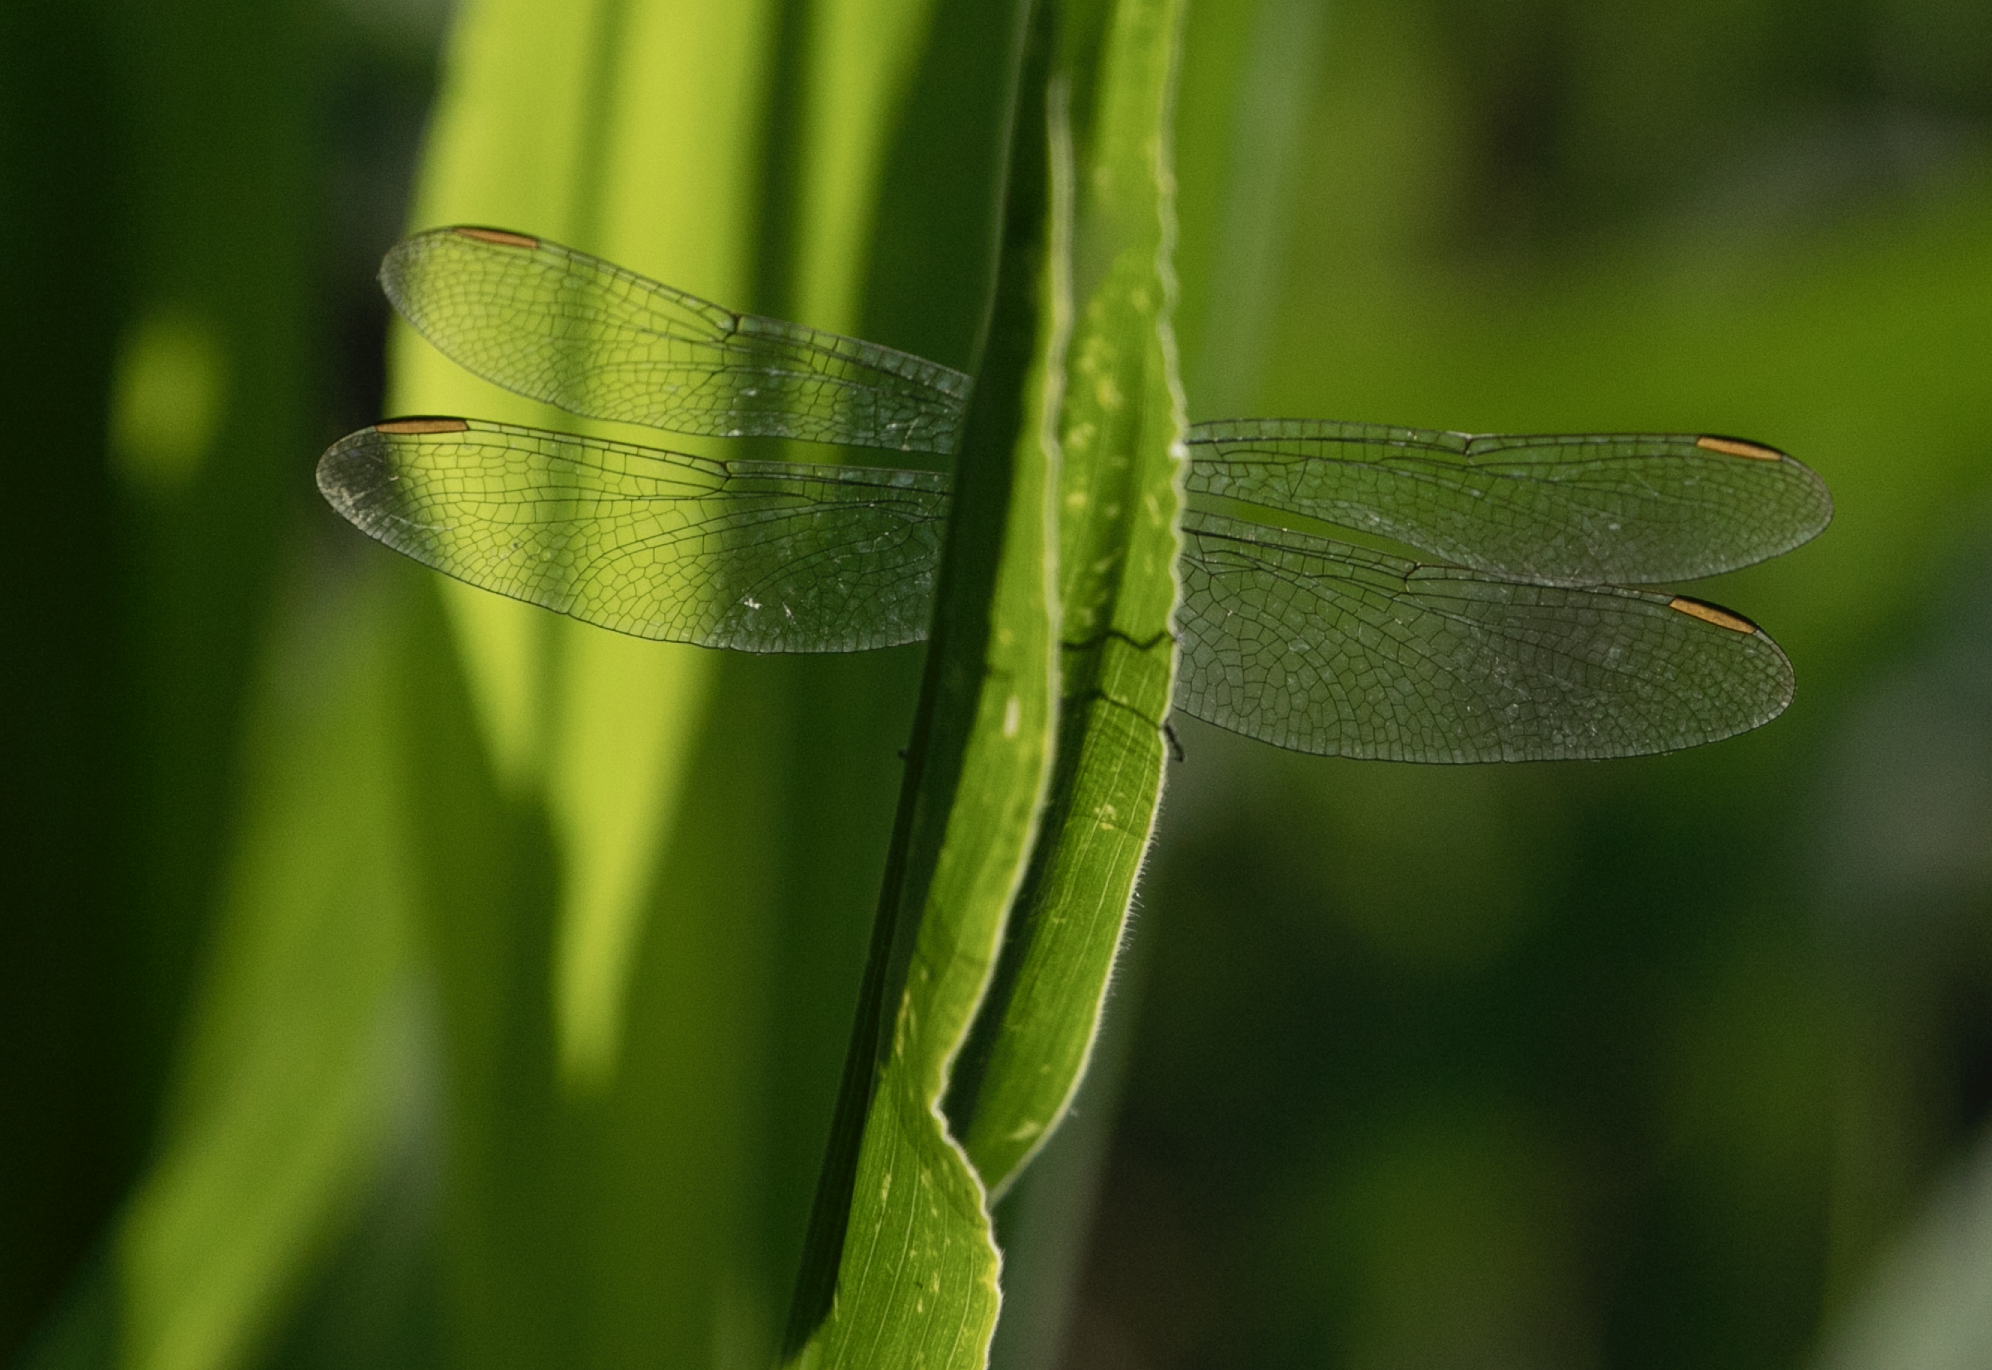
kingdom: Animalia
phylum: Arthropoda
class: Insecta
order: Odonata
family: Libellulidae
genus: Orthetrum
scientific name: Orthetrum coerulescens
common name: Keeled skimmer
